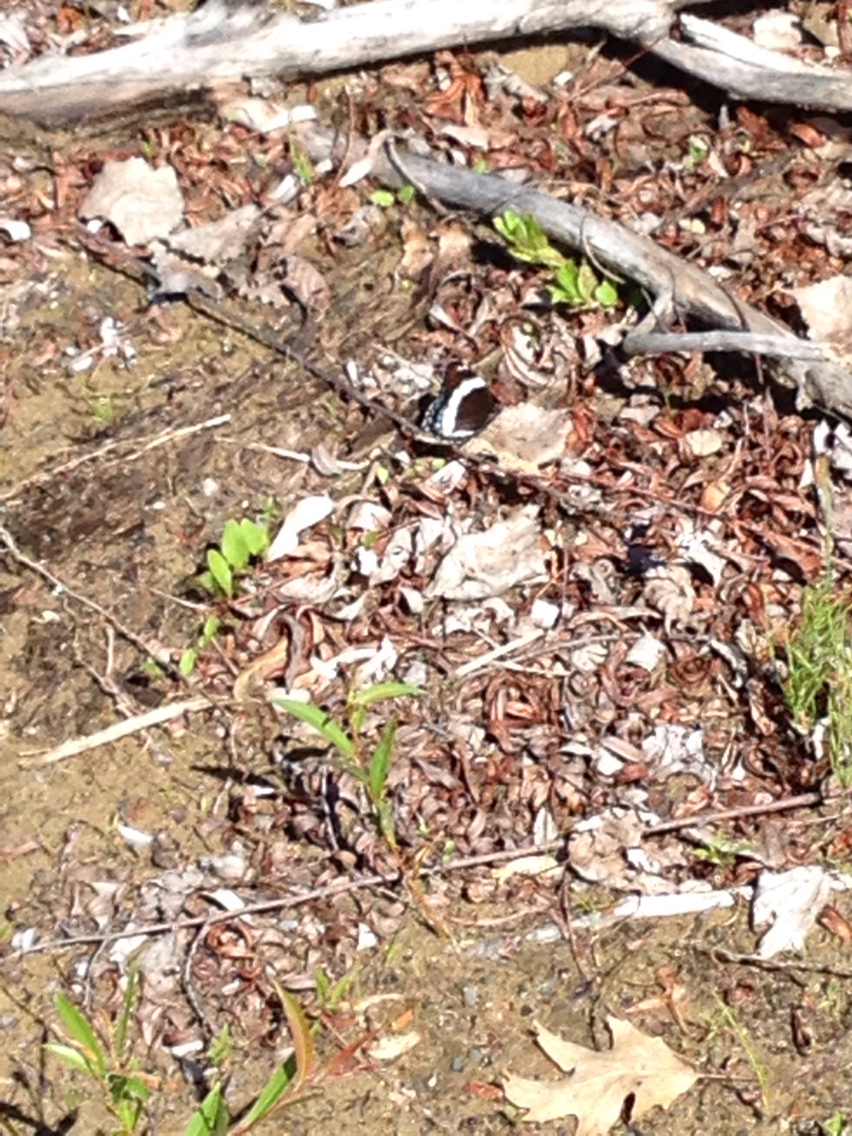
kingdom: Animalia
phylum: Arthropoda
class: Insecta
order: Lepidoptera
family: Nymphalidae
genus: Limenitis
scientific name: Limenitis arthemis
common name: Red-spotted admiral
